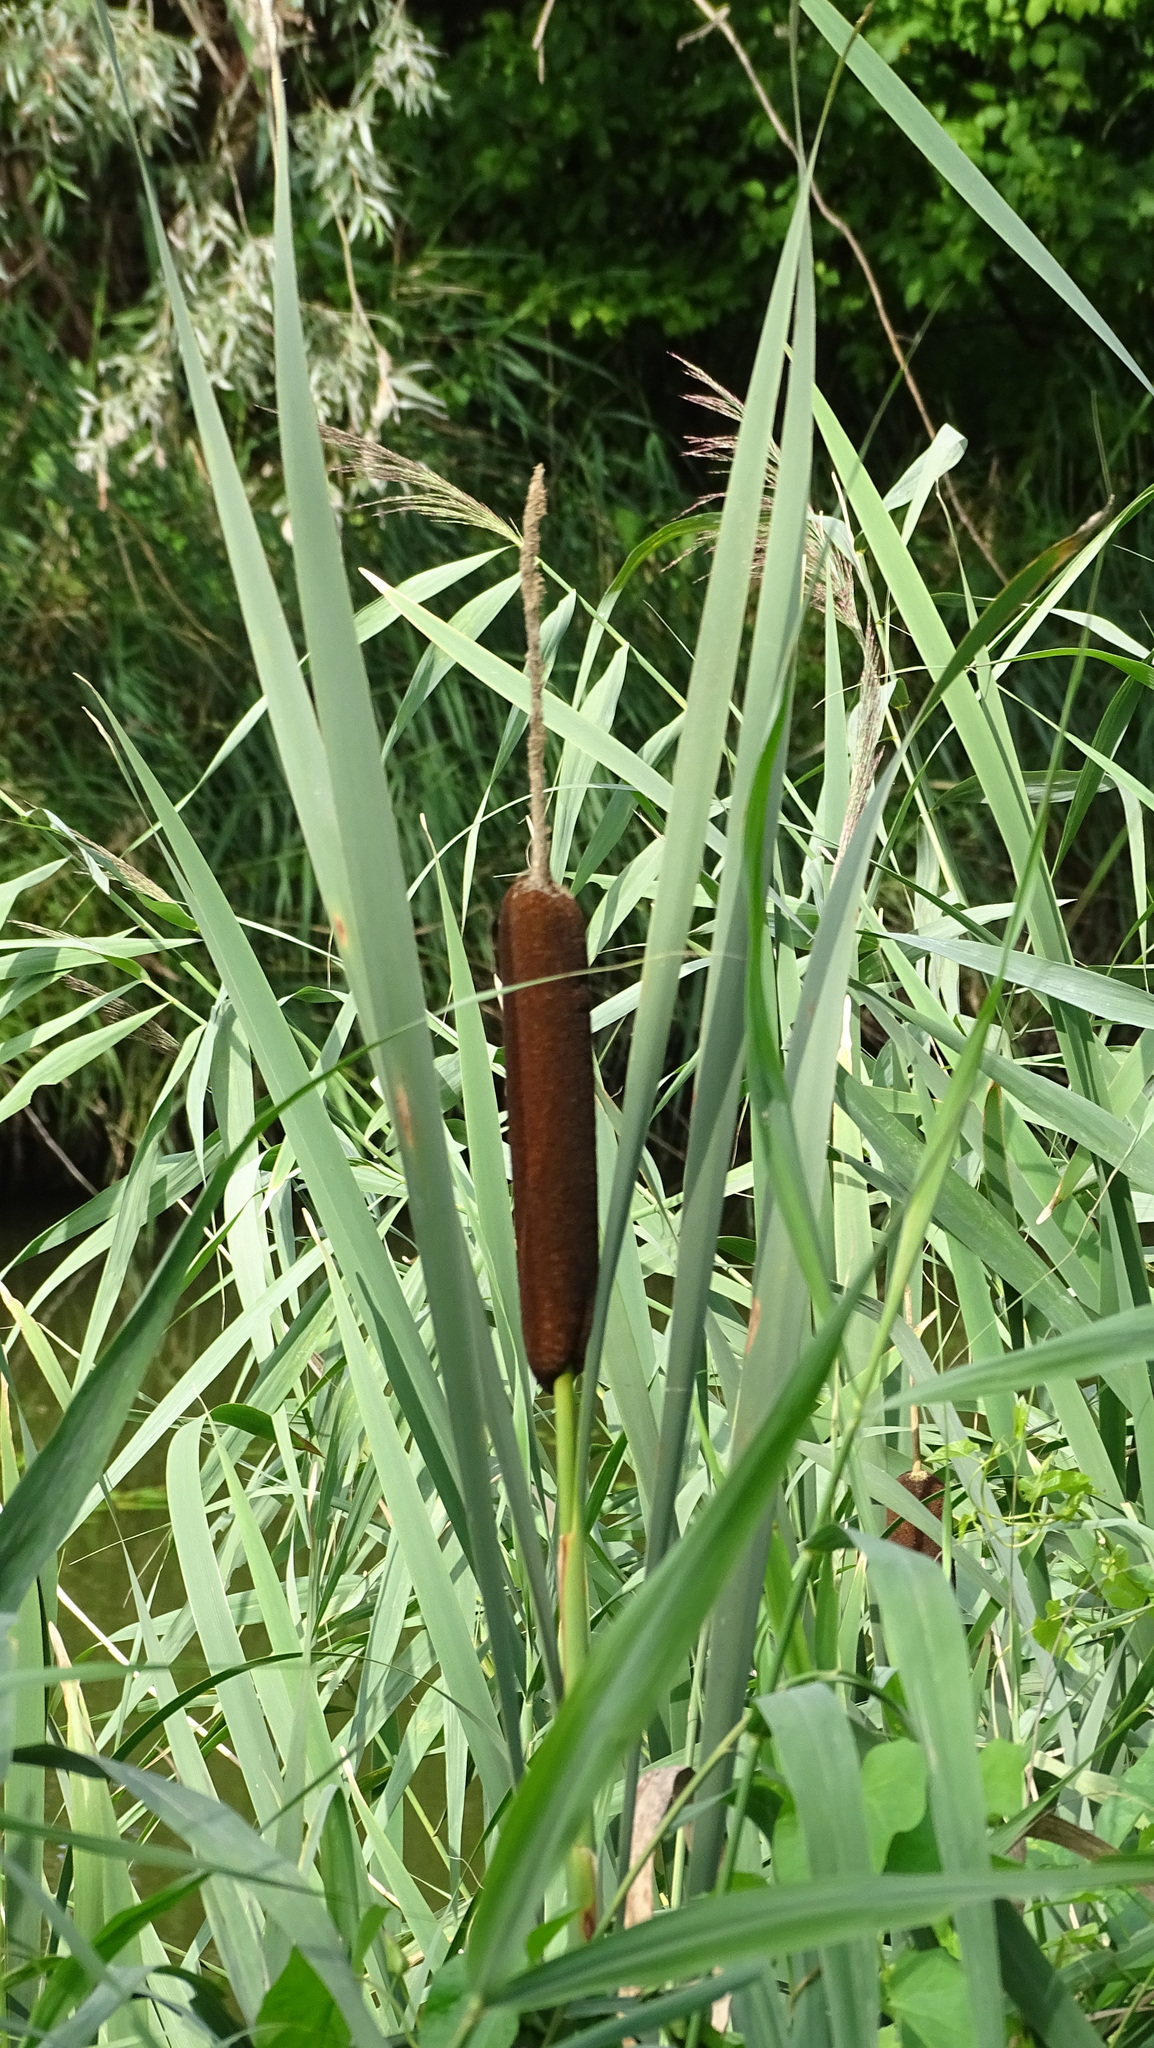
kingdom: Plantae
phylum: Tracheophyta
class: Liliopsida
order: Poales
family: Typhaceae
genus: Typha
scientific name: Typha latifolia
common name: Broadleaf cattail
